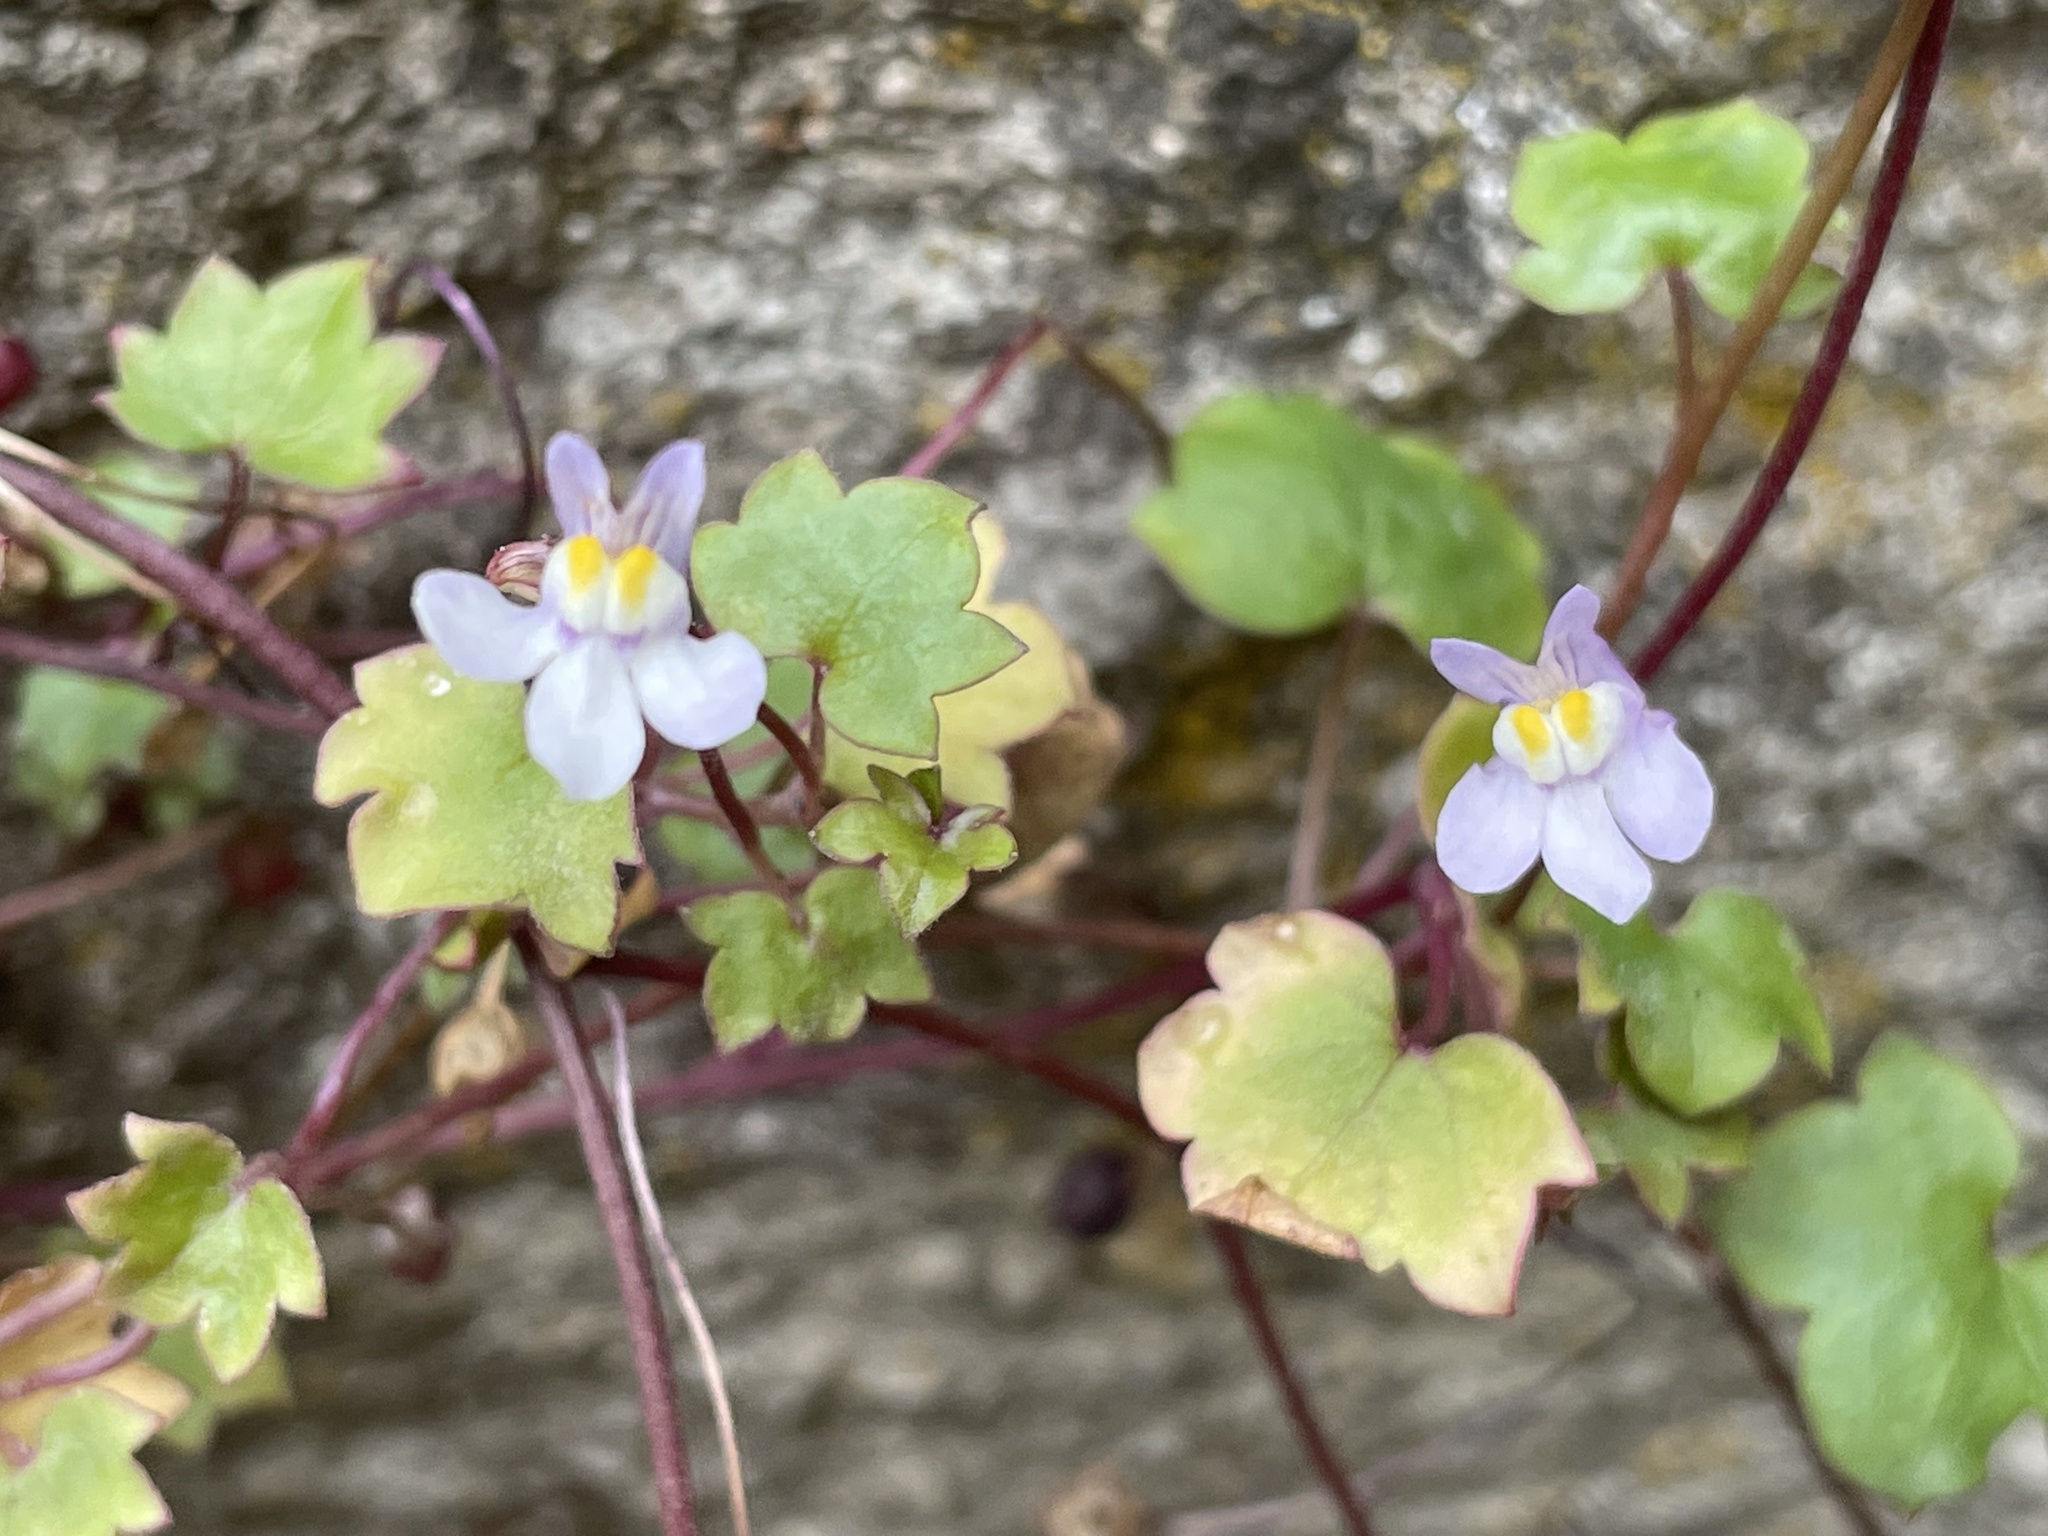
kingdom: Plantae
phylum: Tracheophyta
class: Magnoliopsida
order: Lamiales
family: Plantaginaceae
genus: Cymbalaria
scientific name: Cymbalaria muralis
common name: Ivy-leaved toadflax
